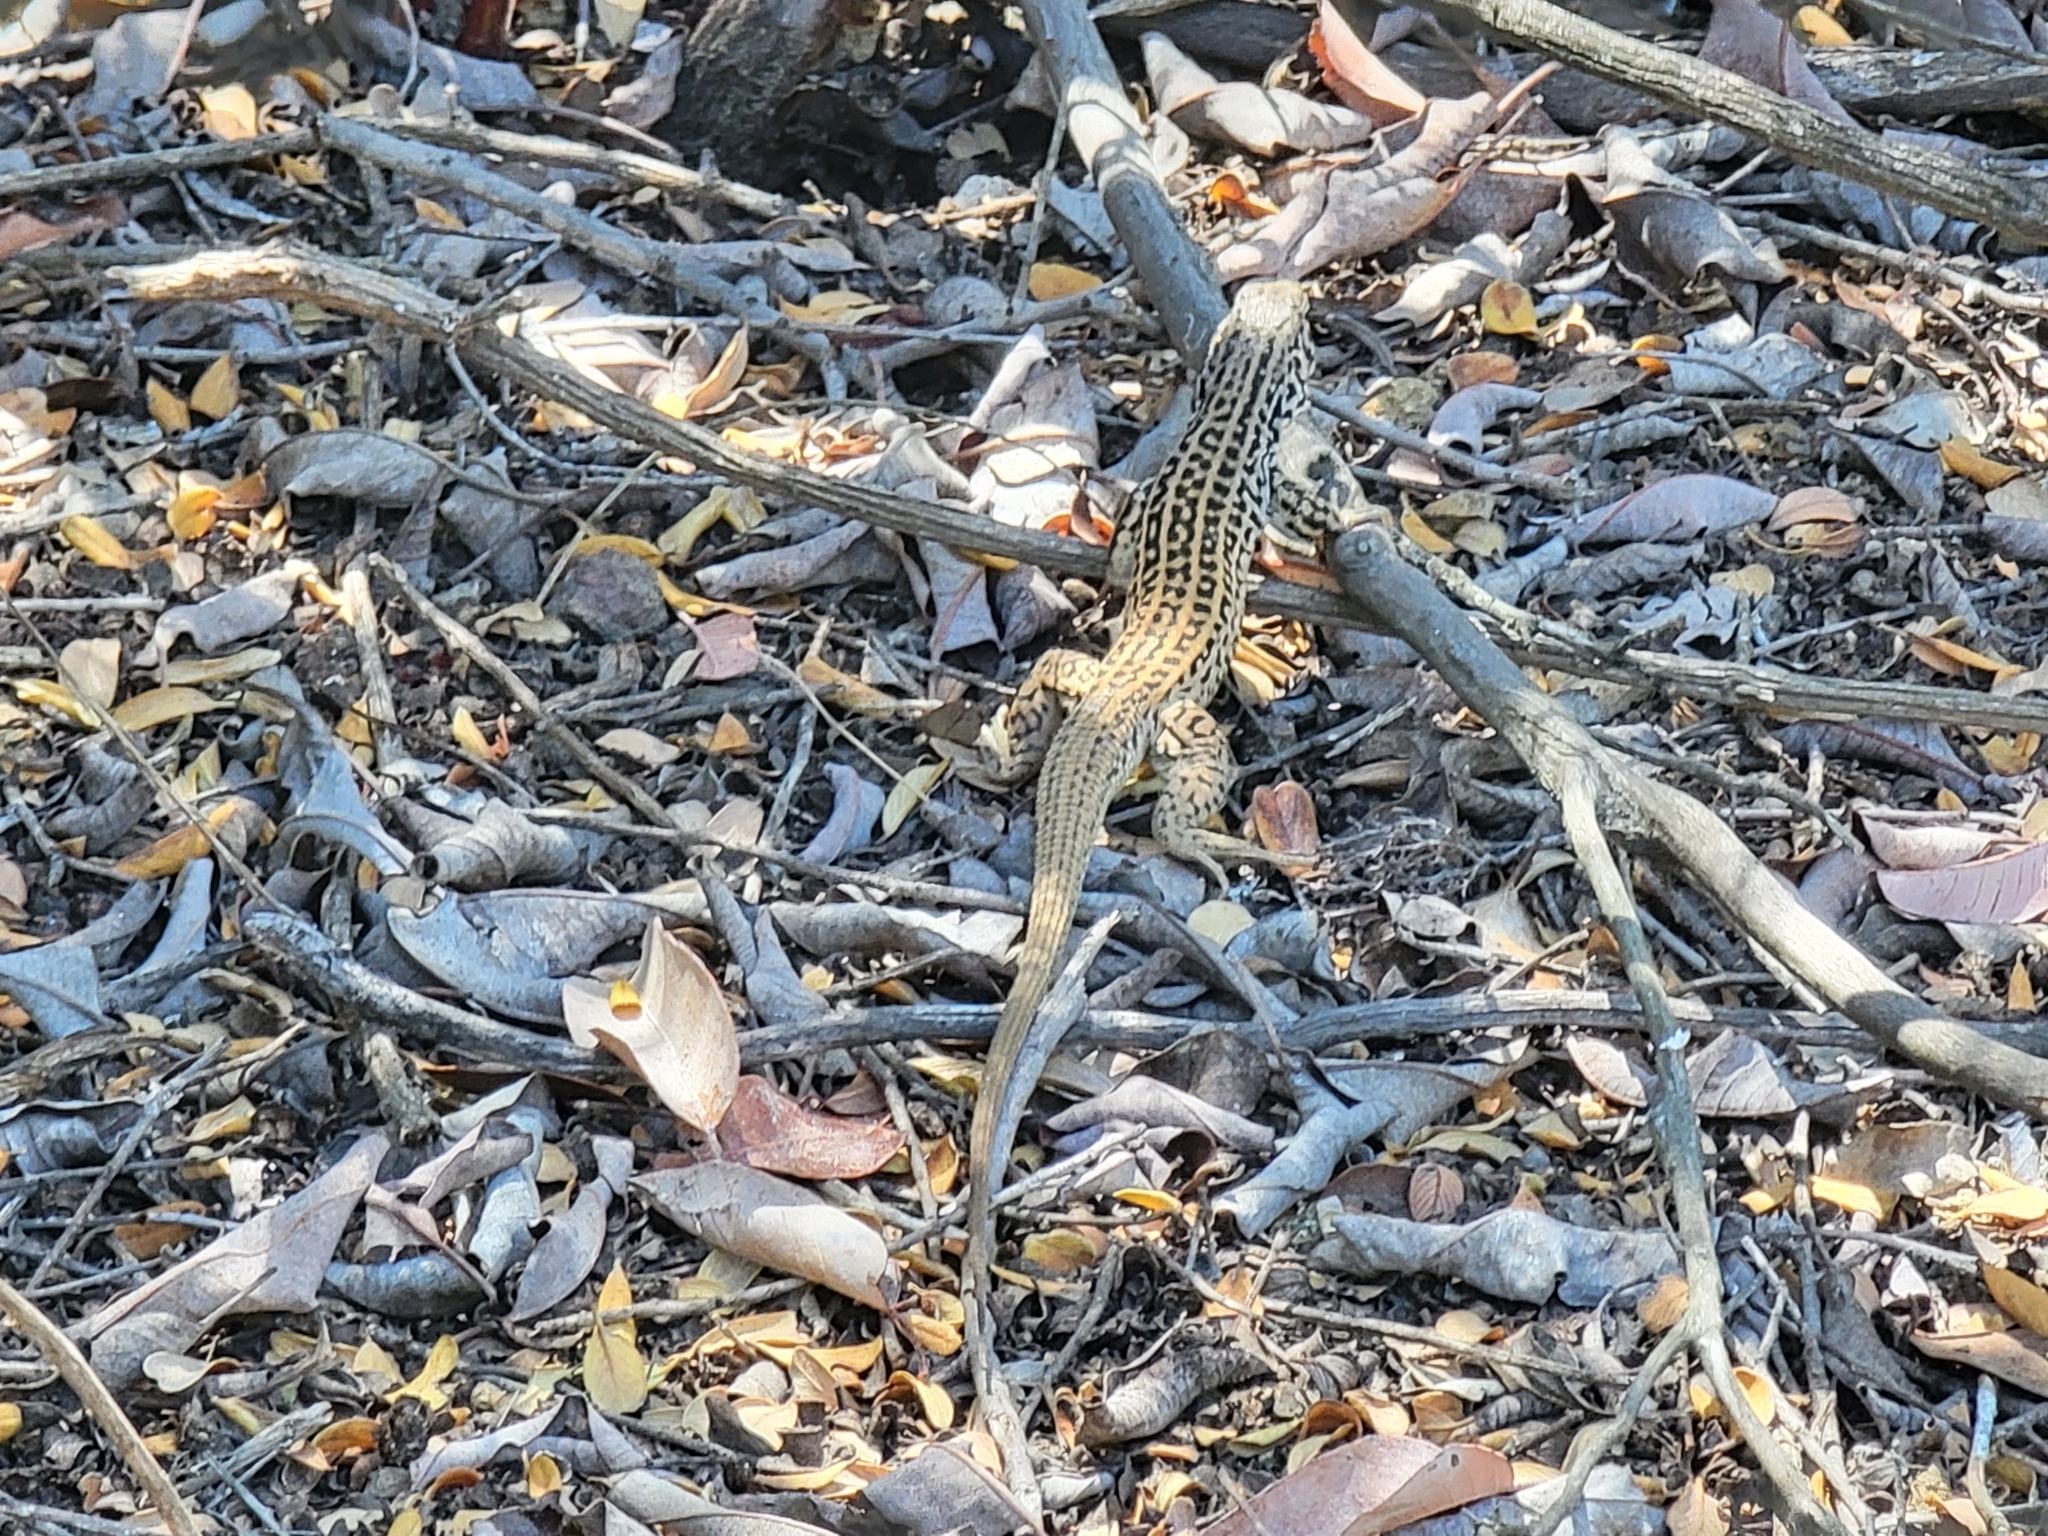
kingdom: Animalia
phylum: Chordata
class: Squamata
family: Teiidae
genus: Aspidoscelis
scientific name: Aspidoscelis tigris
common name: Tiger whiptail
